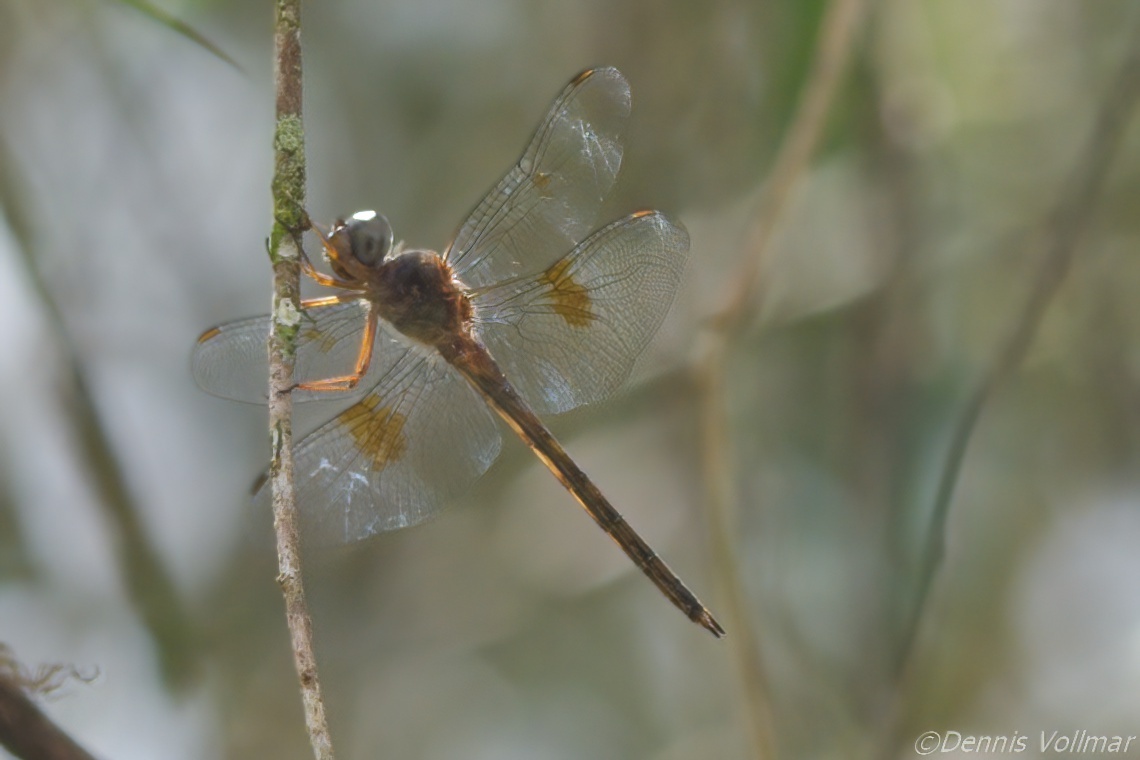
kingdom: Animalia
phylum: Arthropoda
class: Insecta
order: Odonata
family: Libellulidae
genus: Tholymis
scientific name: Tholymis citrina
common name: Evening skimmer
